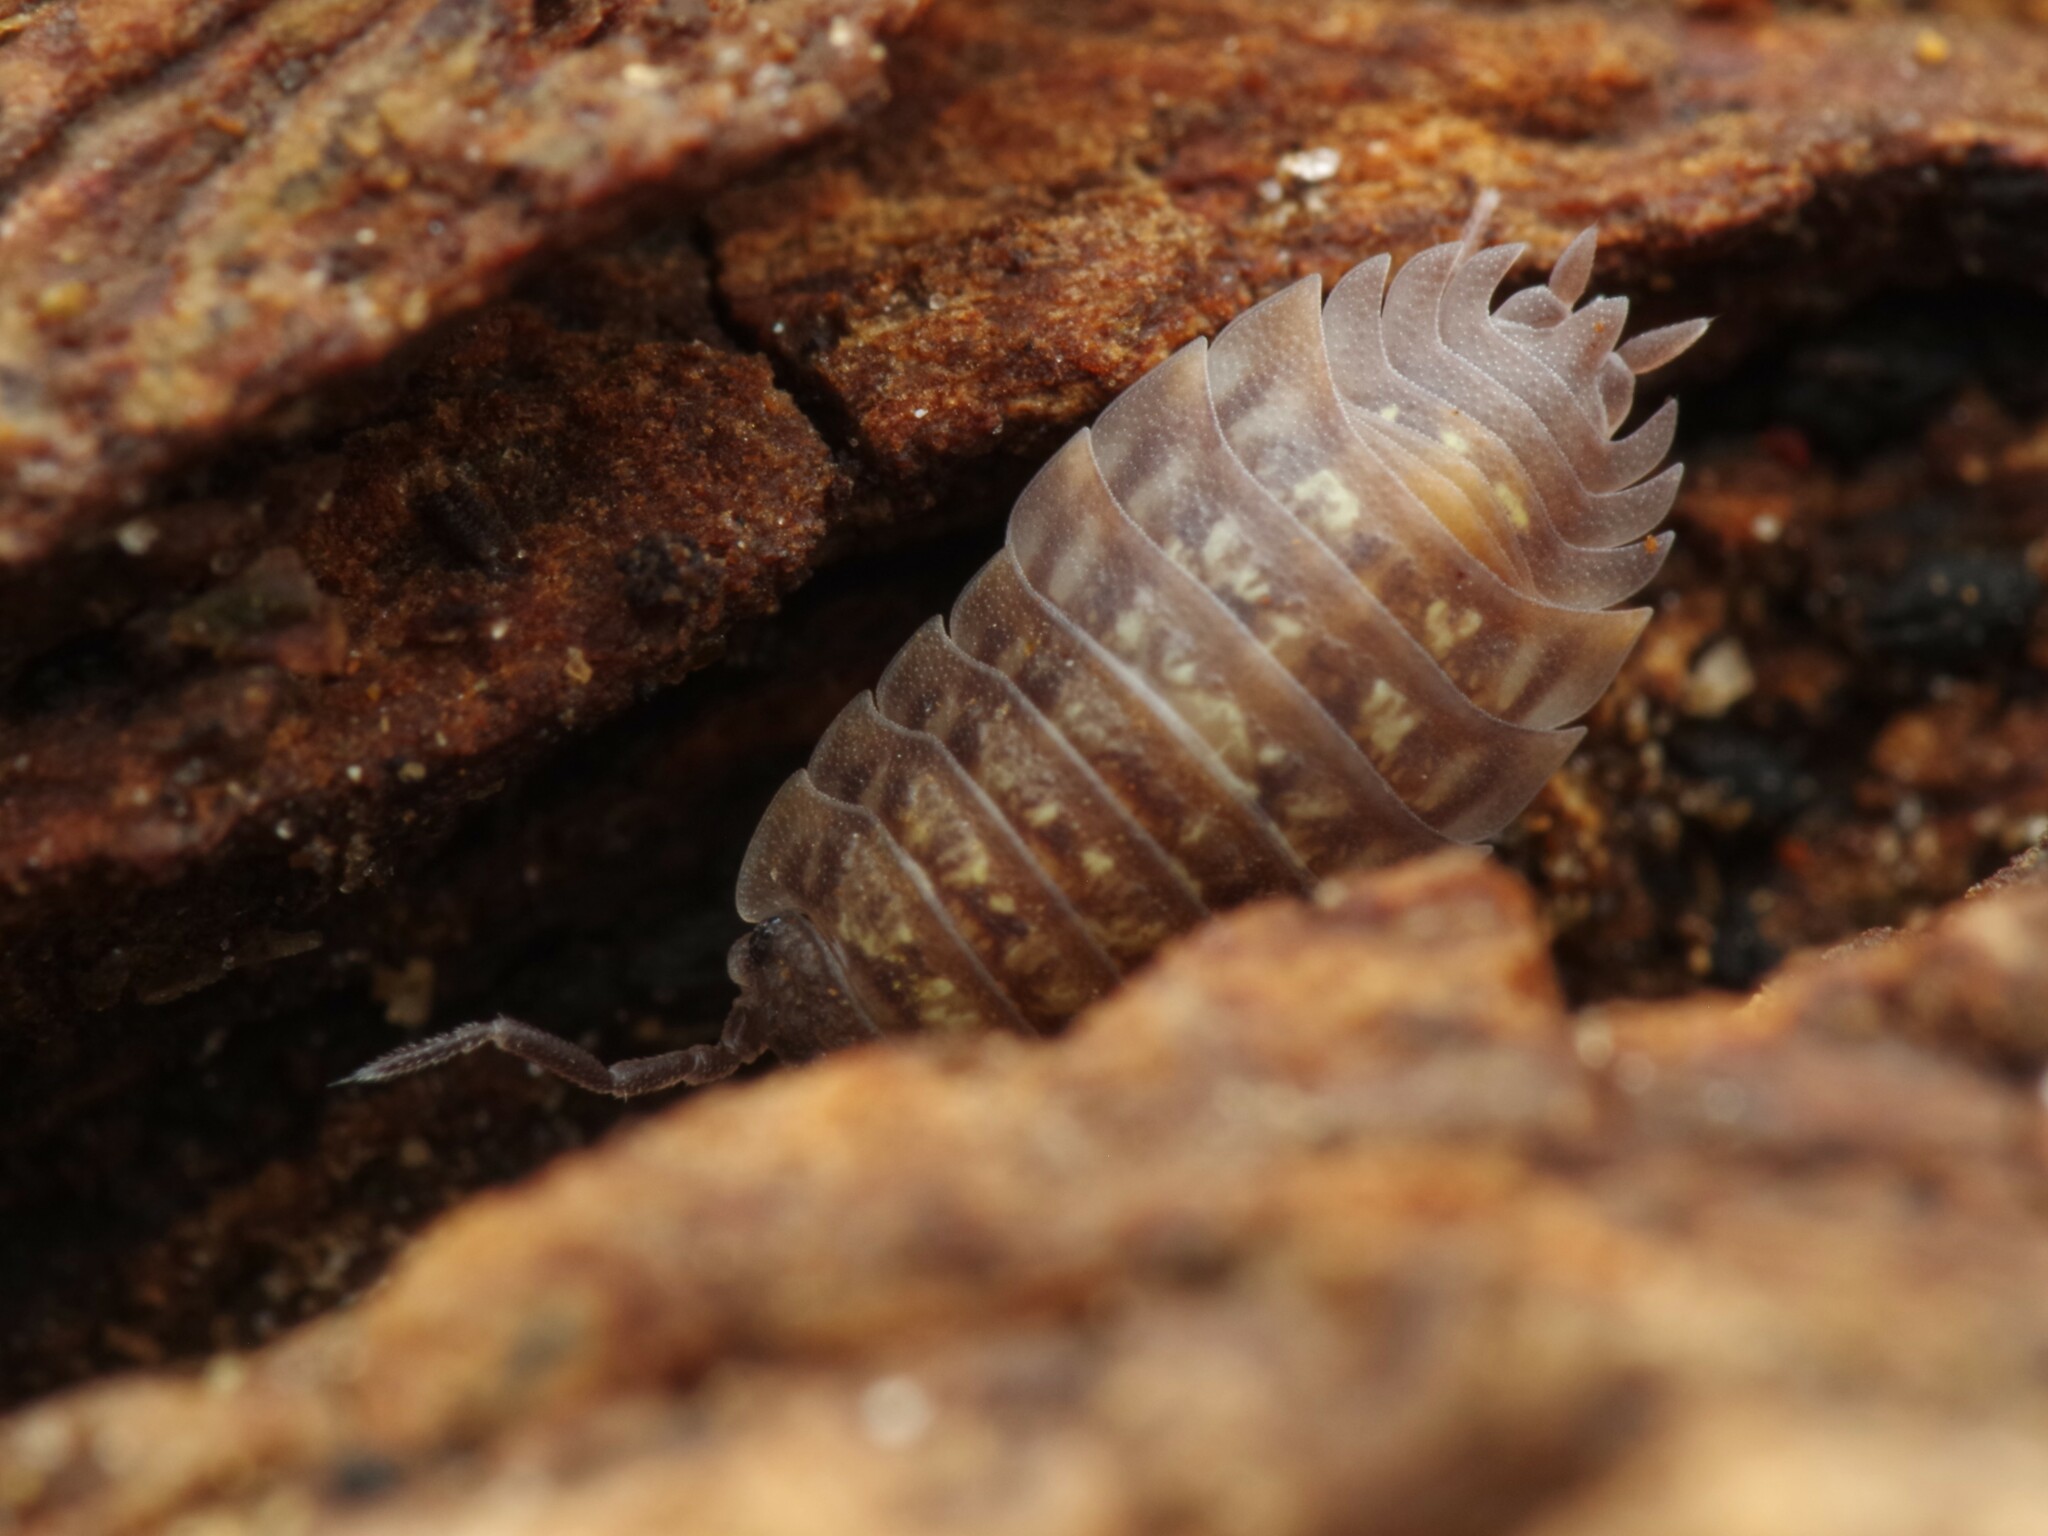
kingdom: Animalia
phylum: Arthropoda
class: Malacostraca
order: Isopoda
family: Oniscidae
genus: Oniscus
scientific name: Oniscus asellus
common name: Common shiny woodlouse
